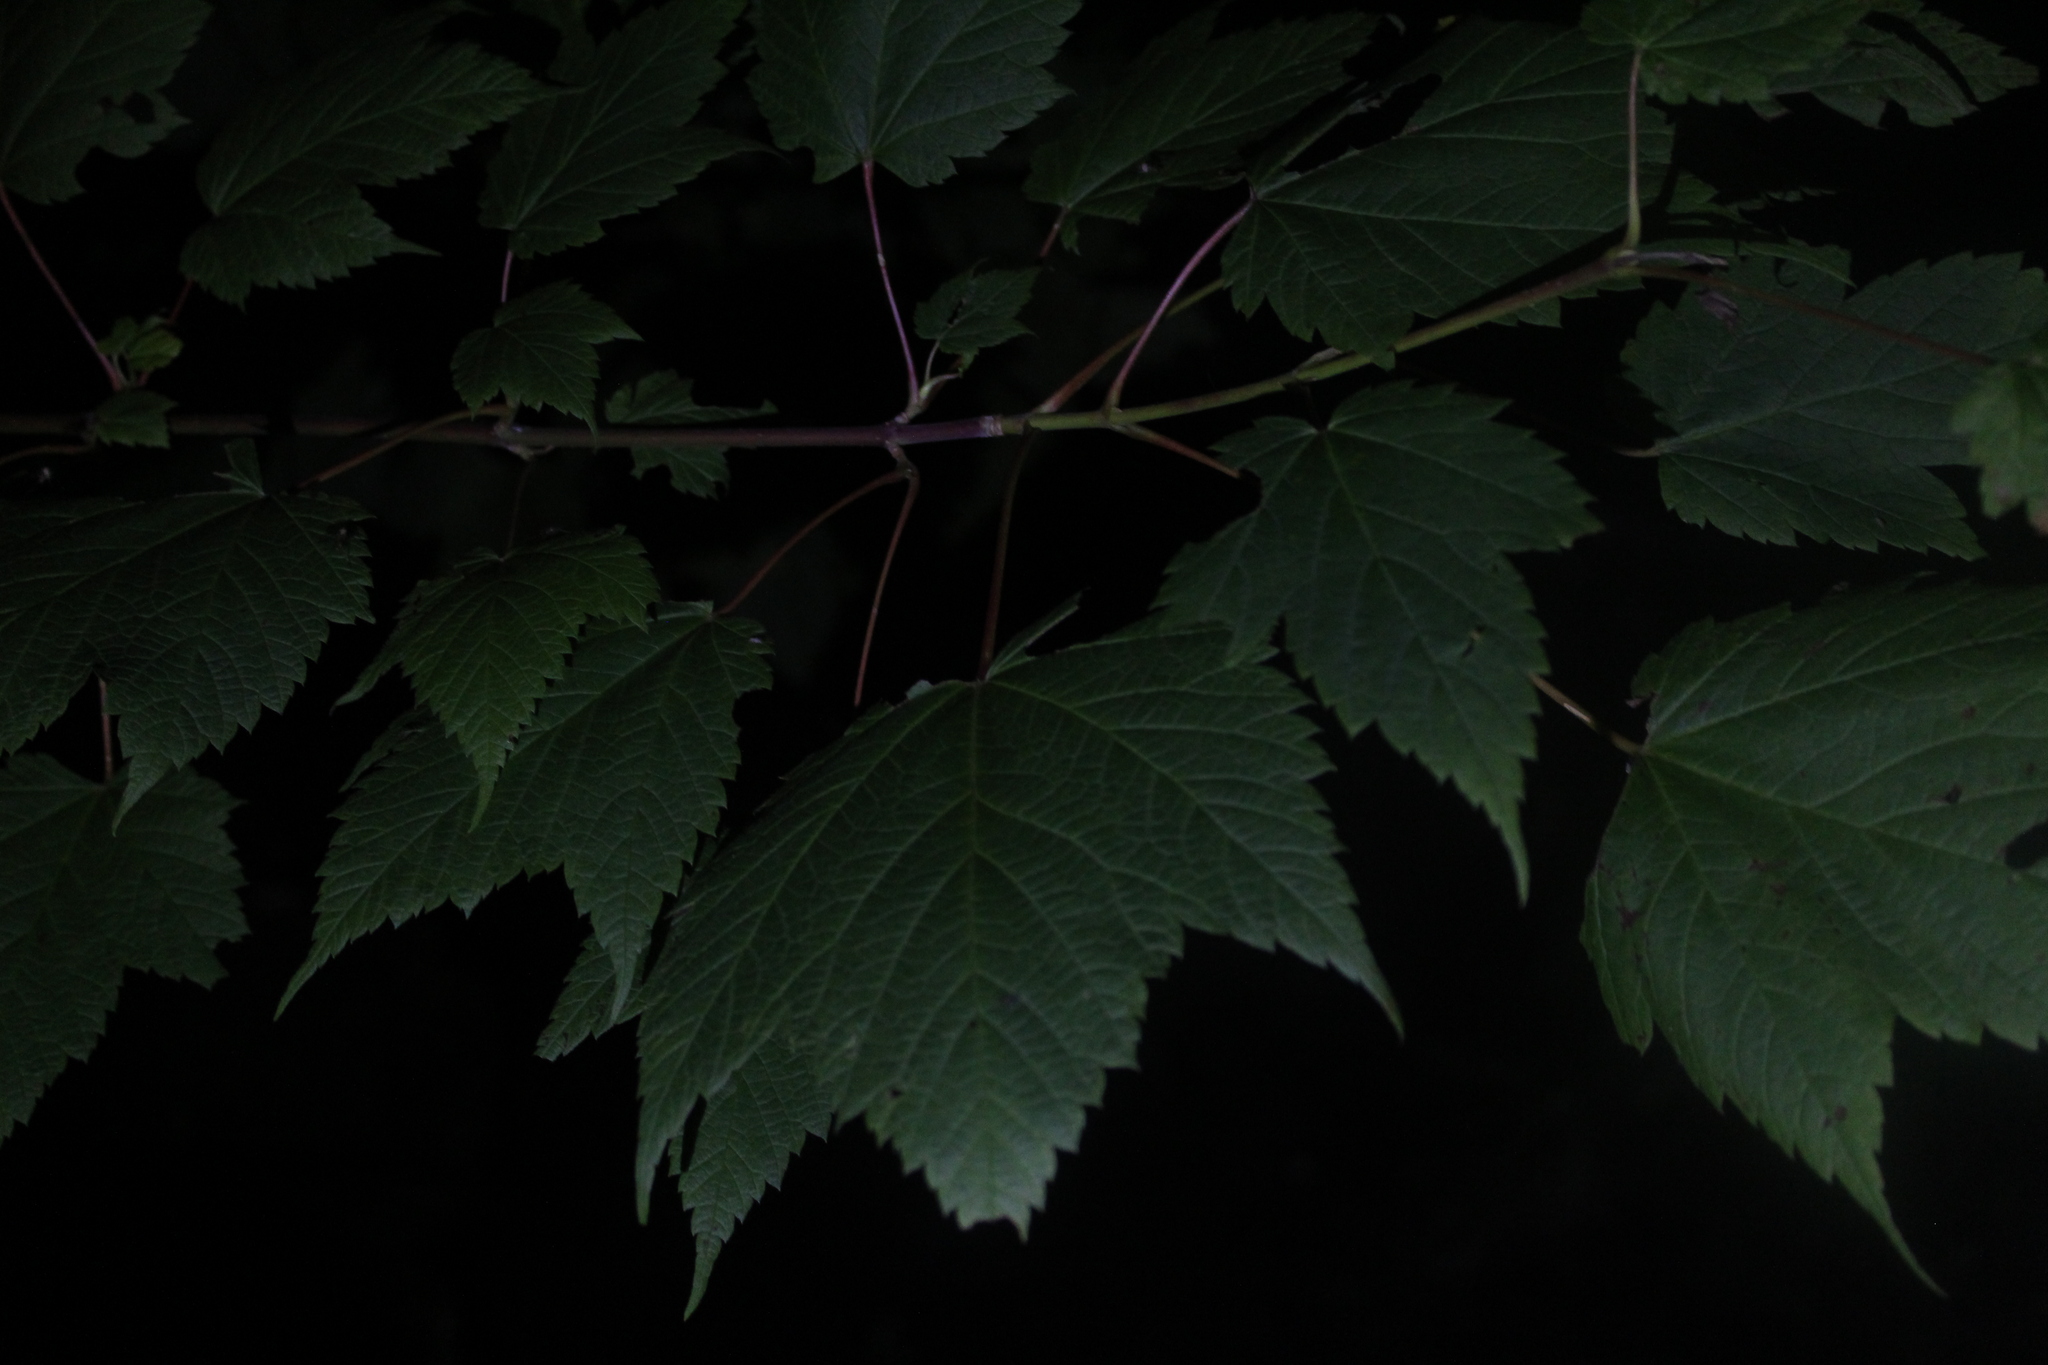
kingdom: Plantae
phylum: Tracheophyta
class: Magnoliopsida
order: Sapindales
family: Sapindaceae
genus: Acer
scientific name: Acer spicatum
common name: Mountain maple
